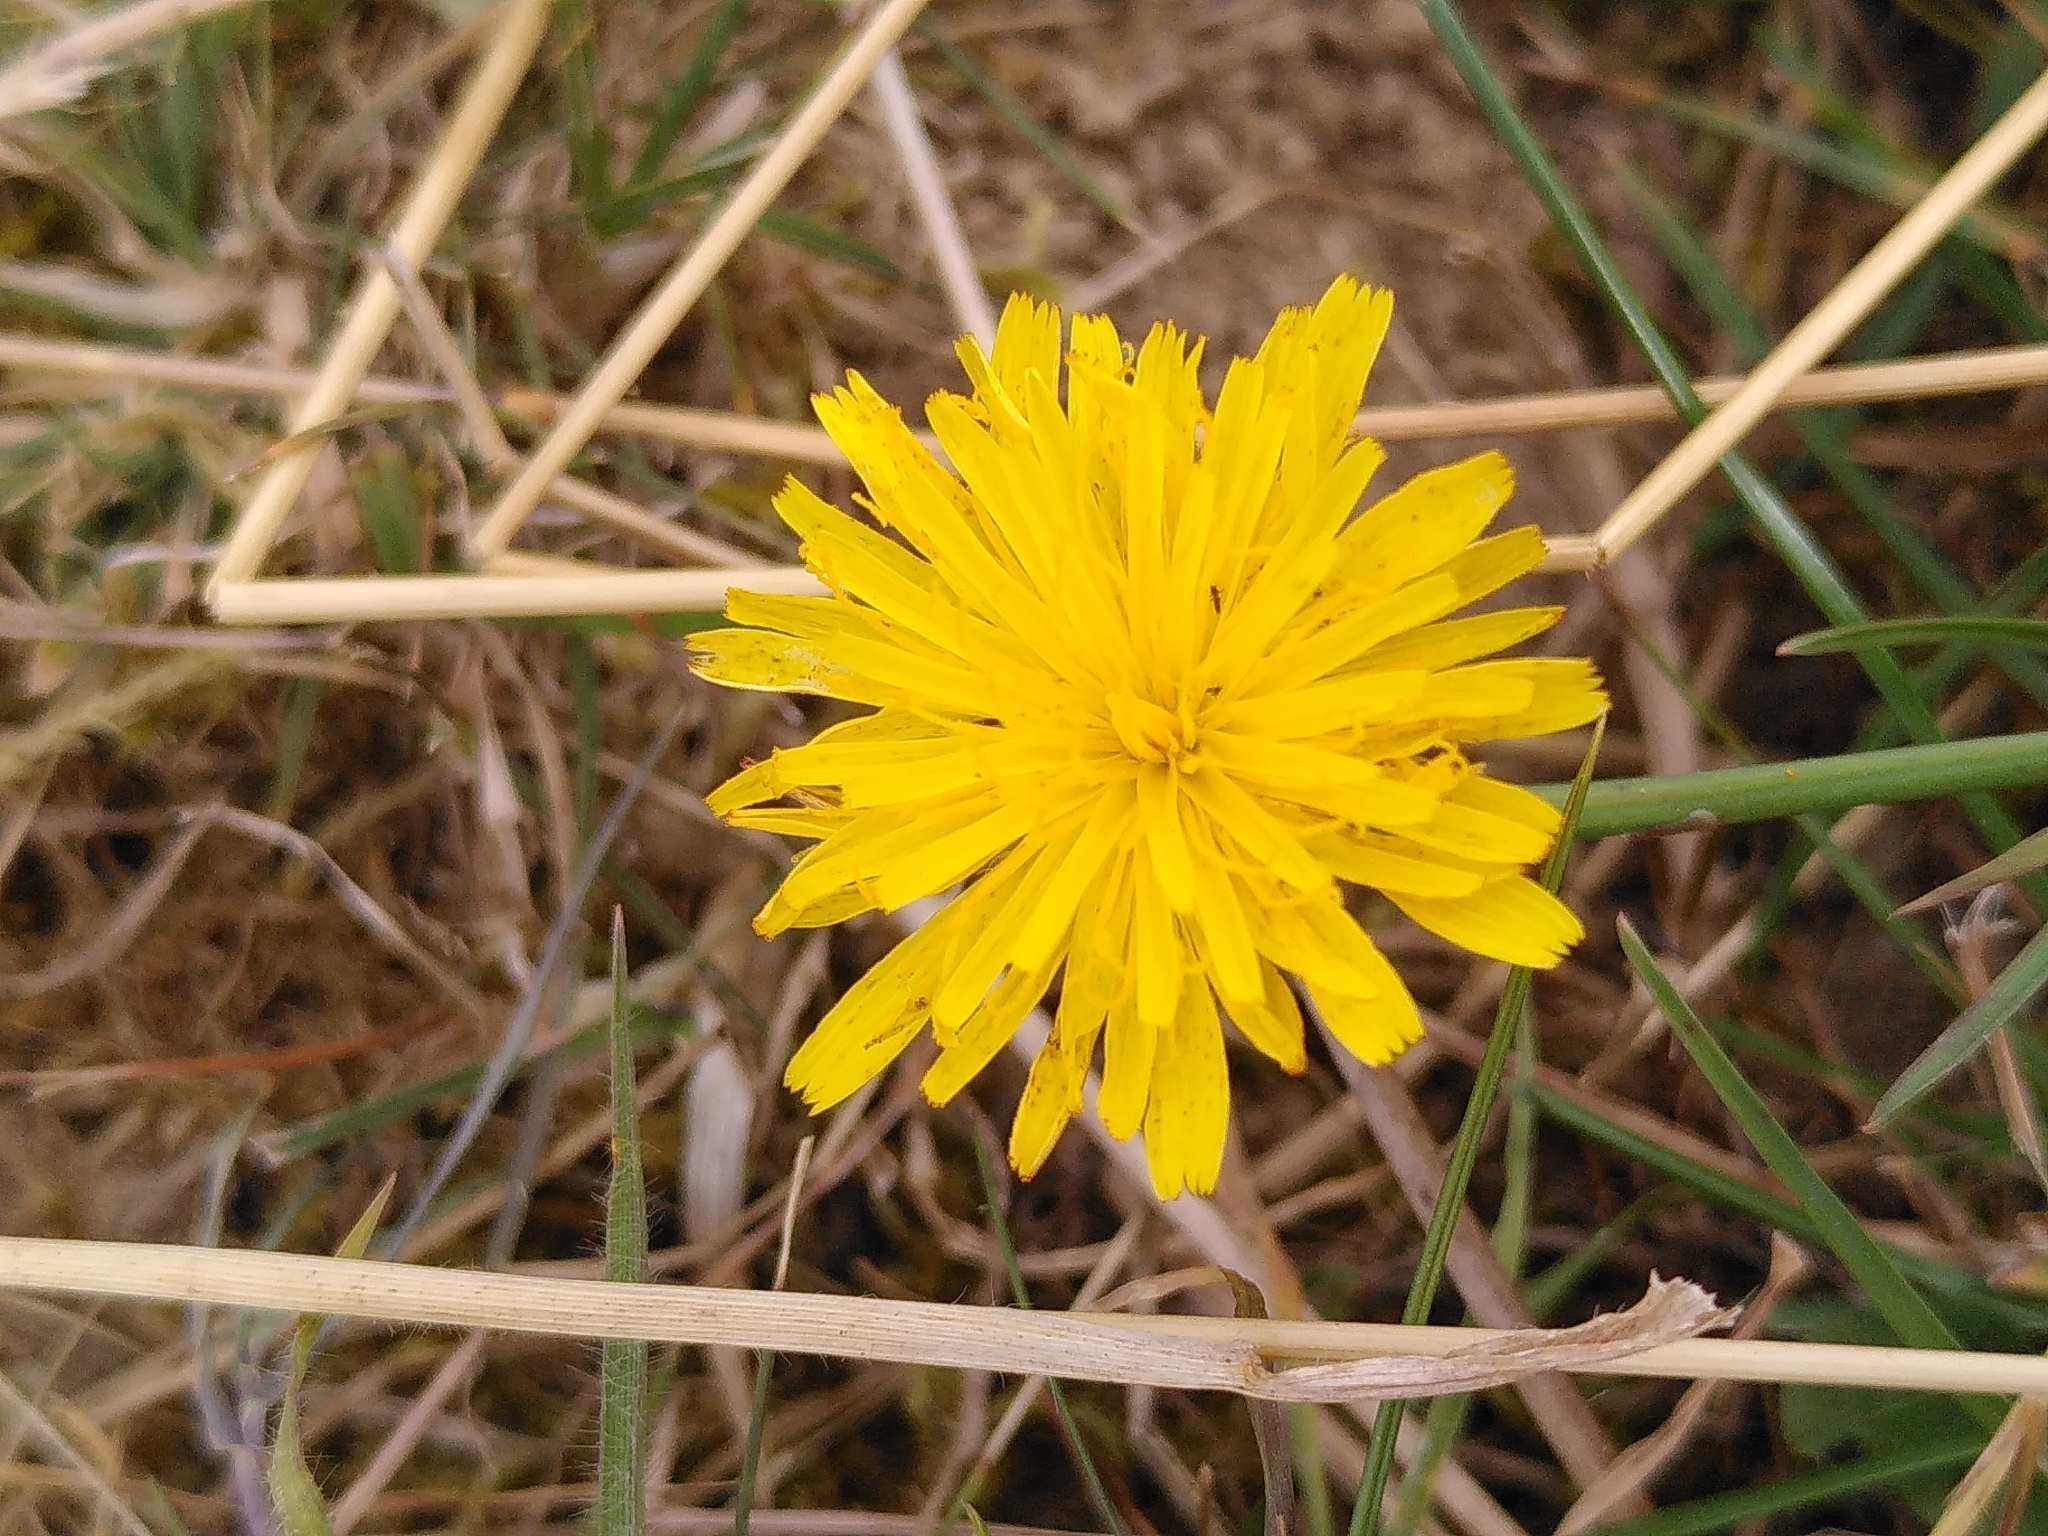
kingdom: Plantae
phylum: Tracheophyta
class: Magnoliopsida
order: Asterales
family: Asteraceae
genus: Hypochaeris
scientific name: Hypochaeris radicata
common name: Flatweed
